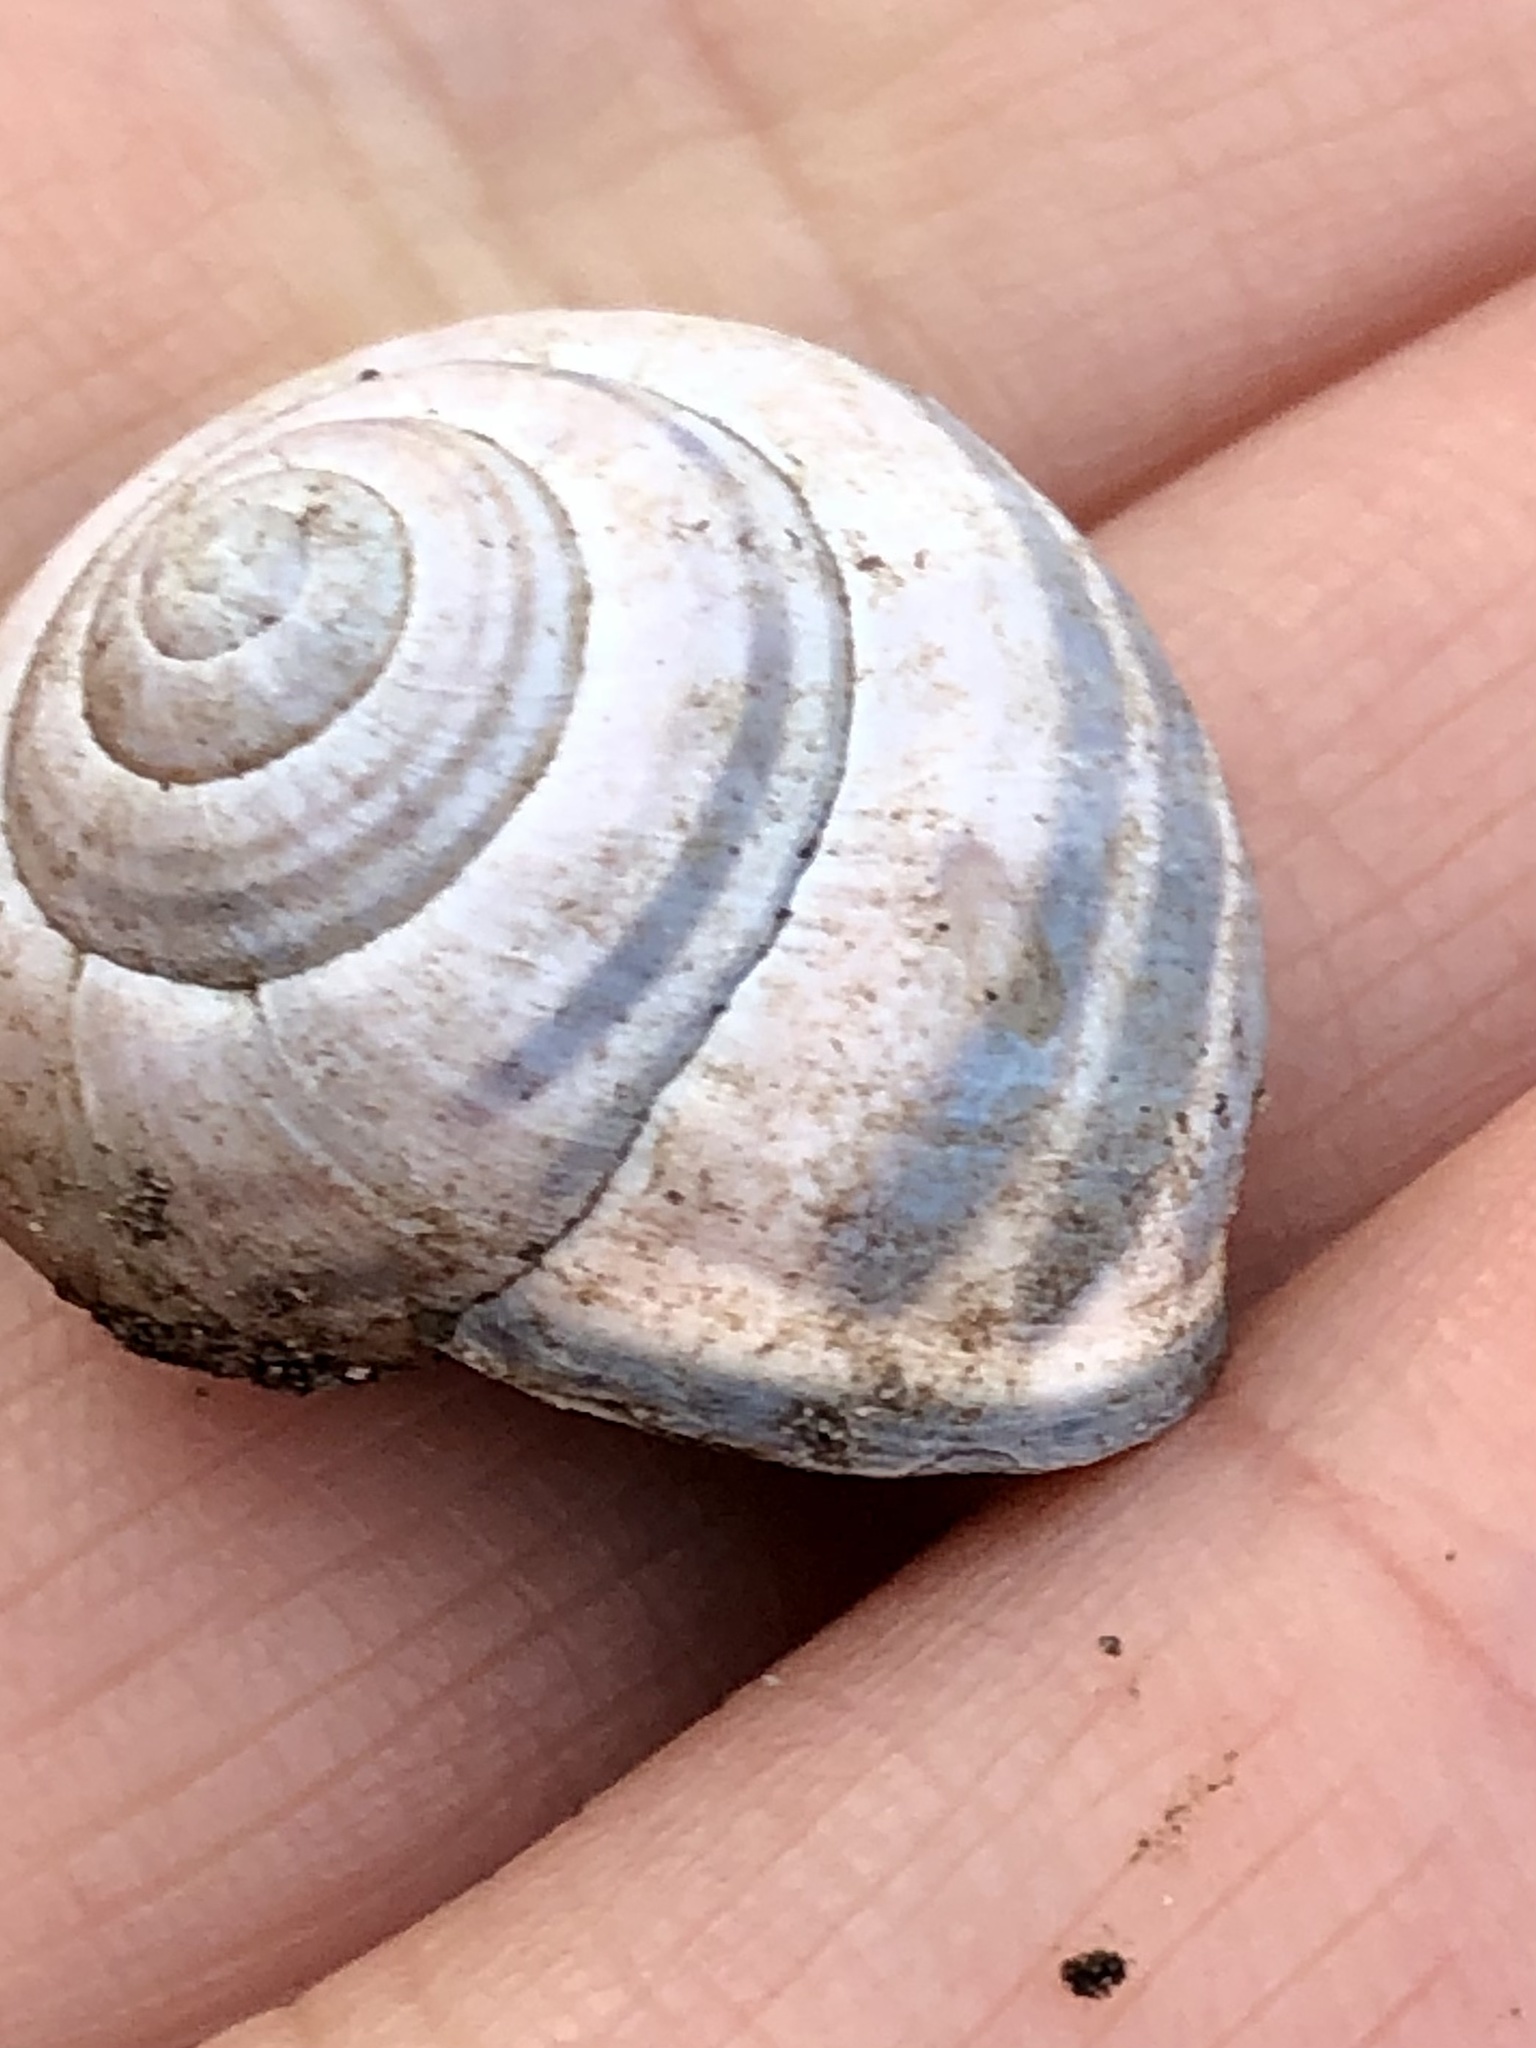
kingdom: Animalia
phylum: Mollusca
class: Gastropoda
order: Stylommatophora
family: Helicidae
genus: Cepaea
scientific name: Cepaea nemoralis
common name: Grovesnail
